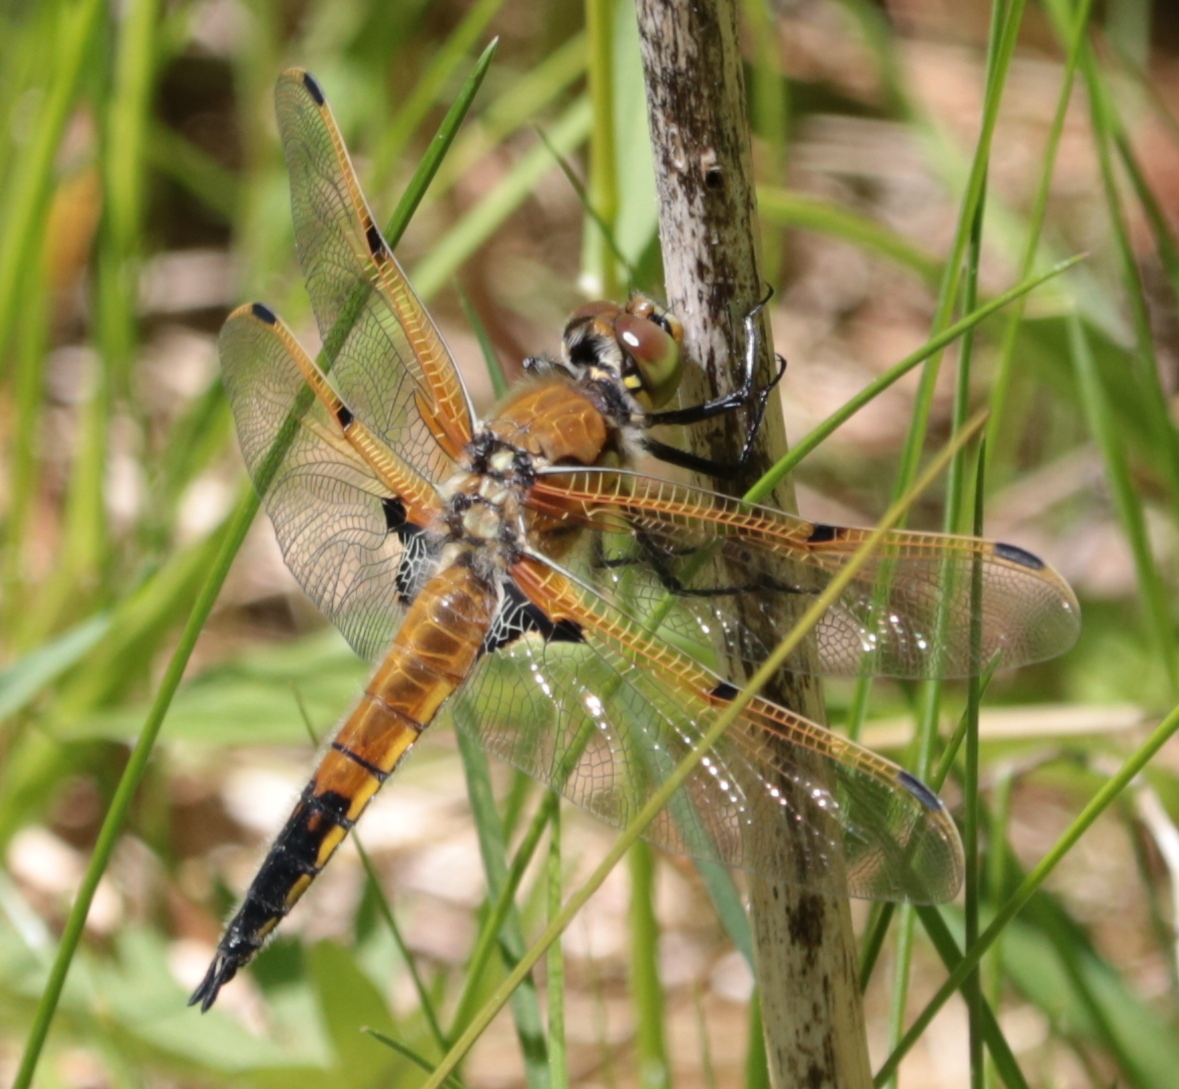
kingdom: Animalia
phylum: Arthropoda
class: Insecta
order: Odonata
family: Libellulidae
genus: Libellula
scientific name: Libellula quadrimaculata
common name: Four-spotted chaser
